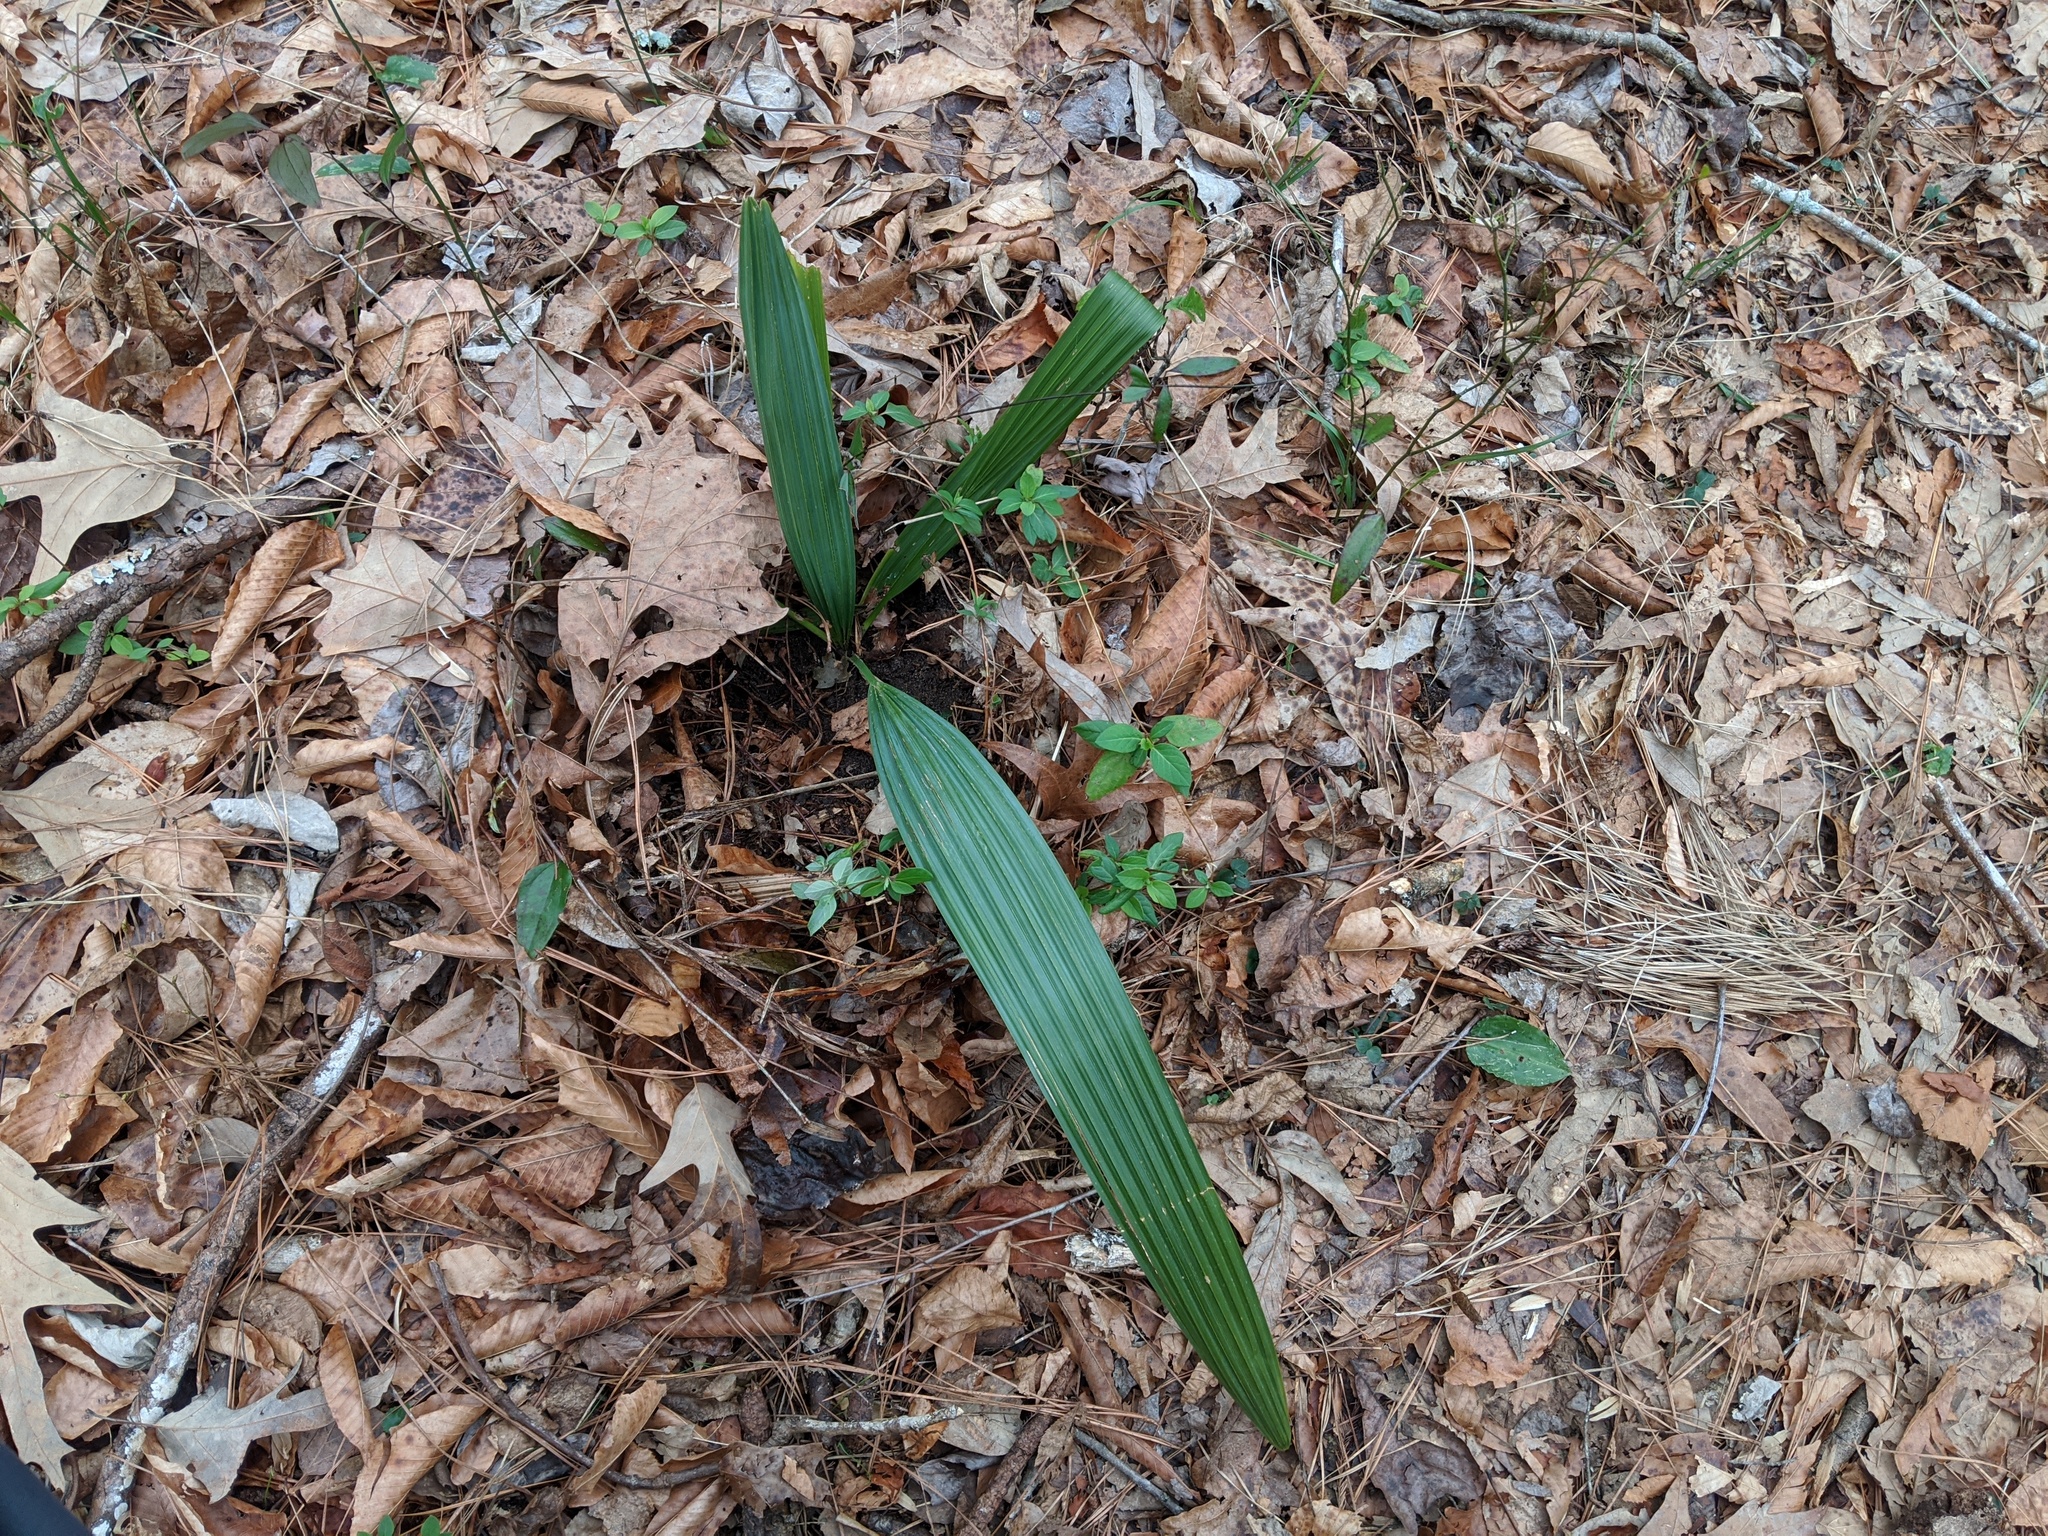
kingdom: Plantae
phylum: Tracheophyta
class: Liliopsida
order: Arecales
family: Arecaceae
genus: Sabal
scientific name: Sabal minor
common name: Dwarf palmetto
